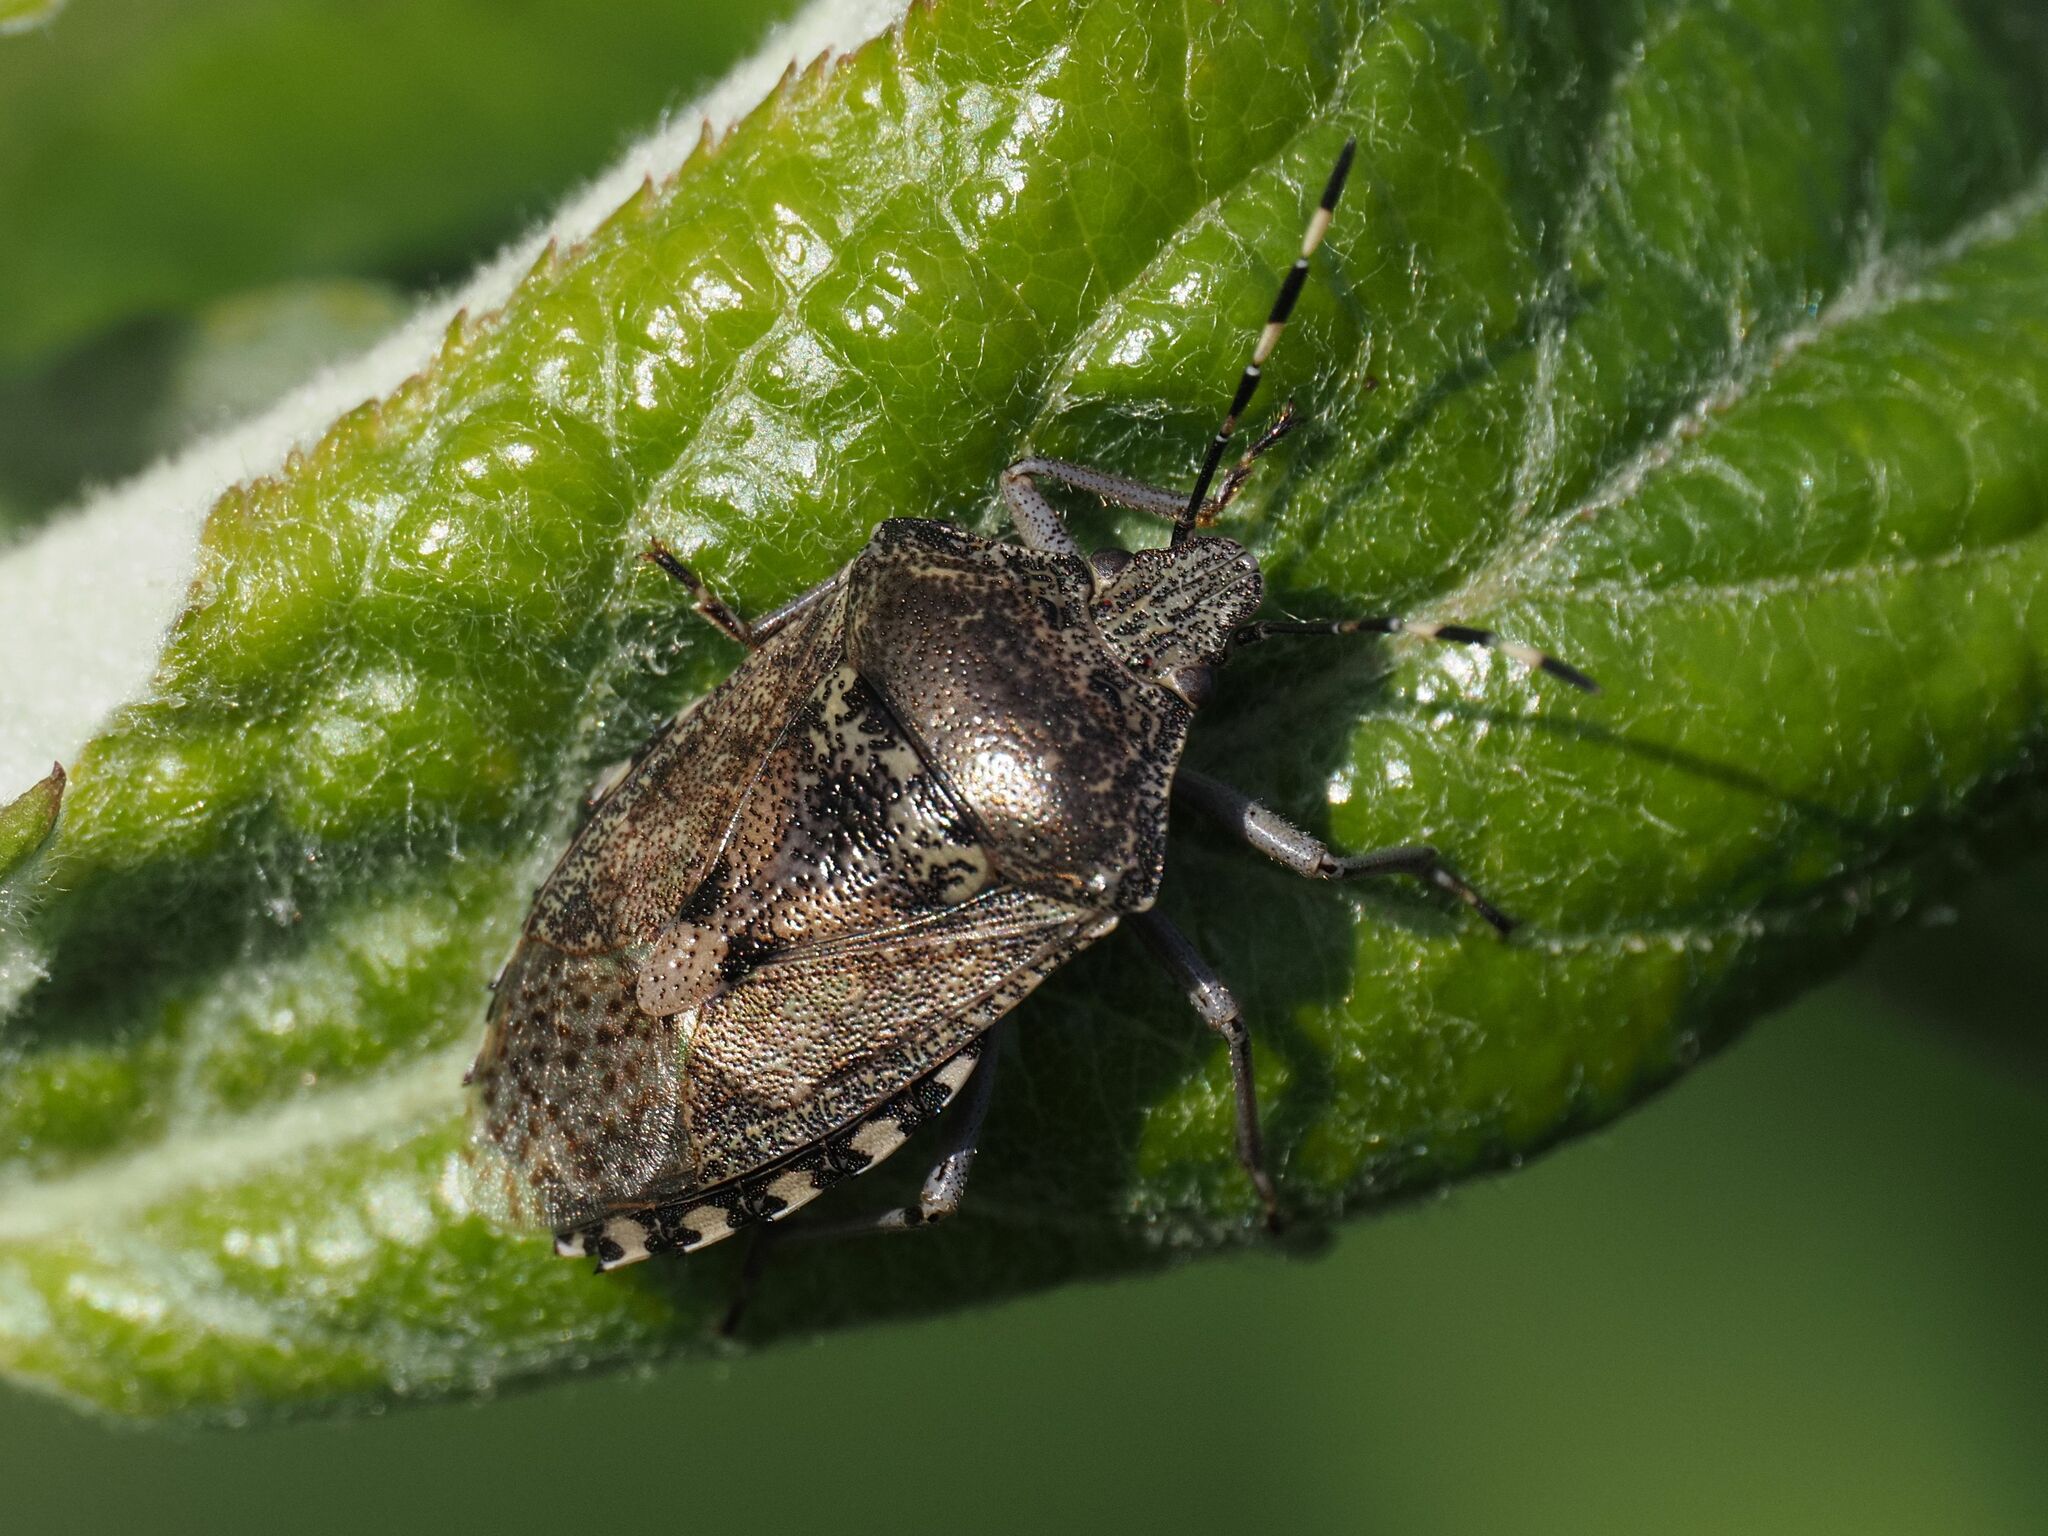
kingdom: Animalia
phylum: Arthropoda
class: Insecta
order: Hemiptera
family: Pentatomidae
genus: Rhaphigaster
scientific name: Rhaphigaster nebulosa
